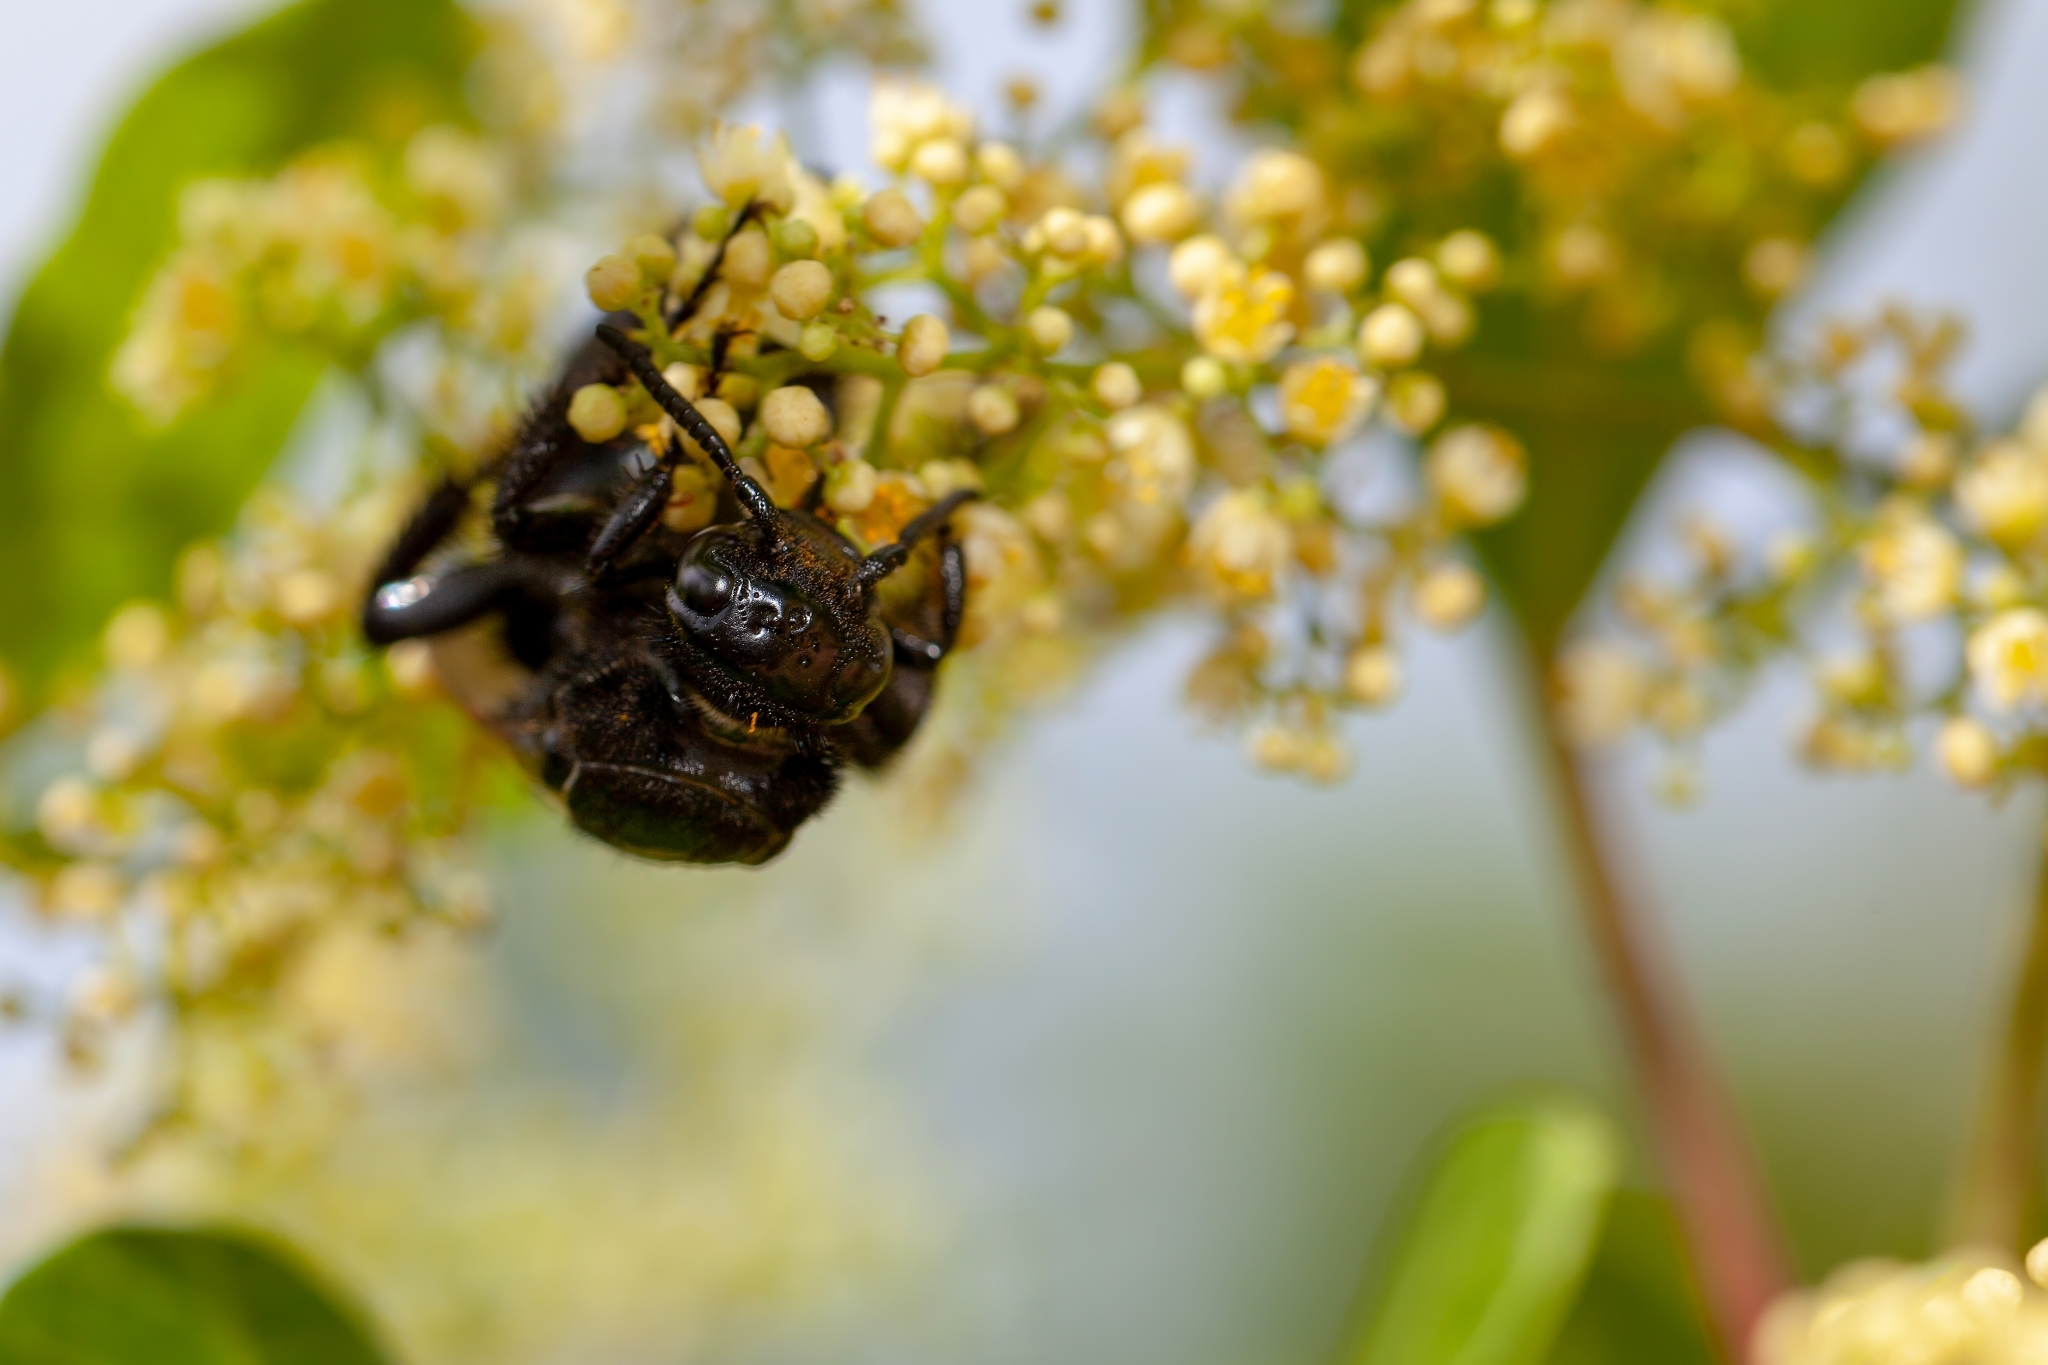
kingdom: Animalia
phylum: Arthropoda
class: Insecta
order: Hymenoptera
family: Scoliidae
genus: Pygodasis
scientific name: Pygodasis
